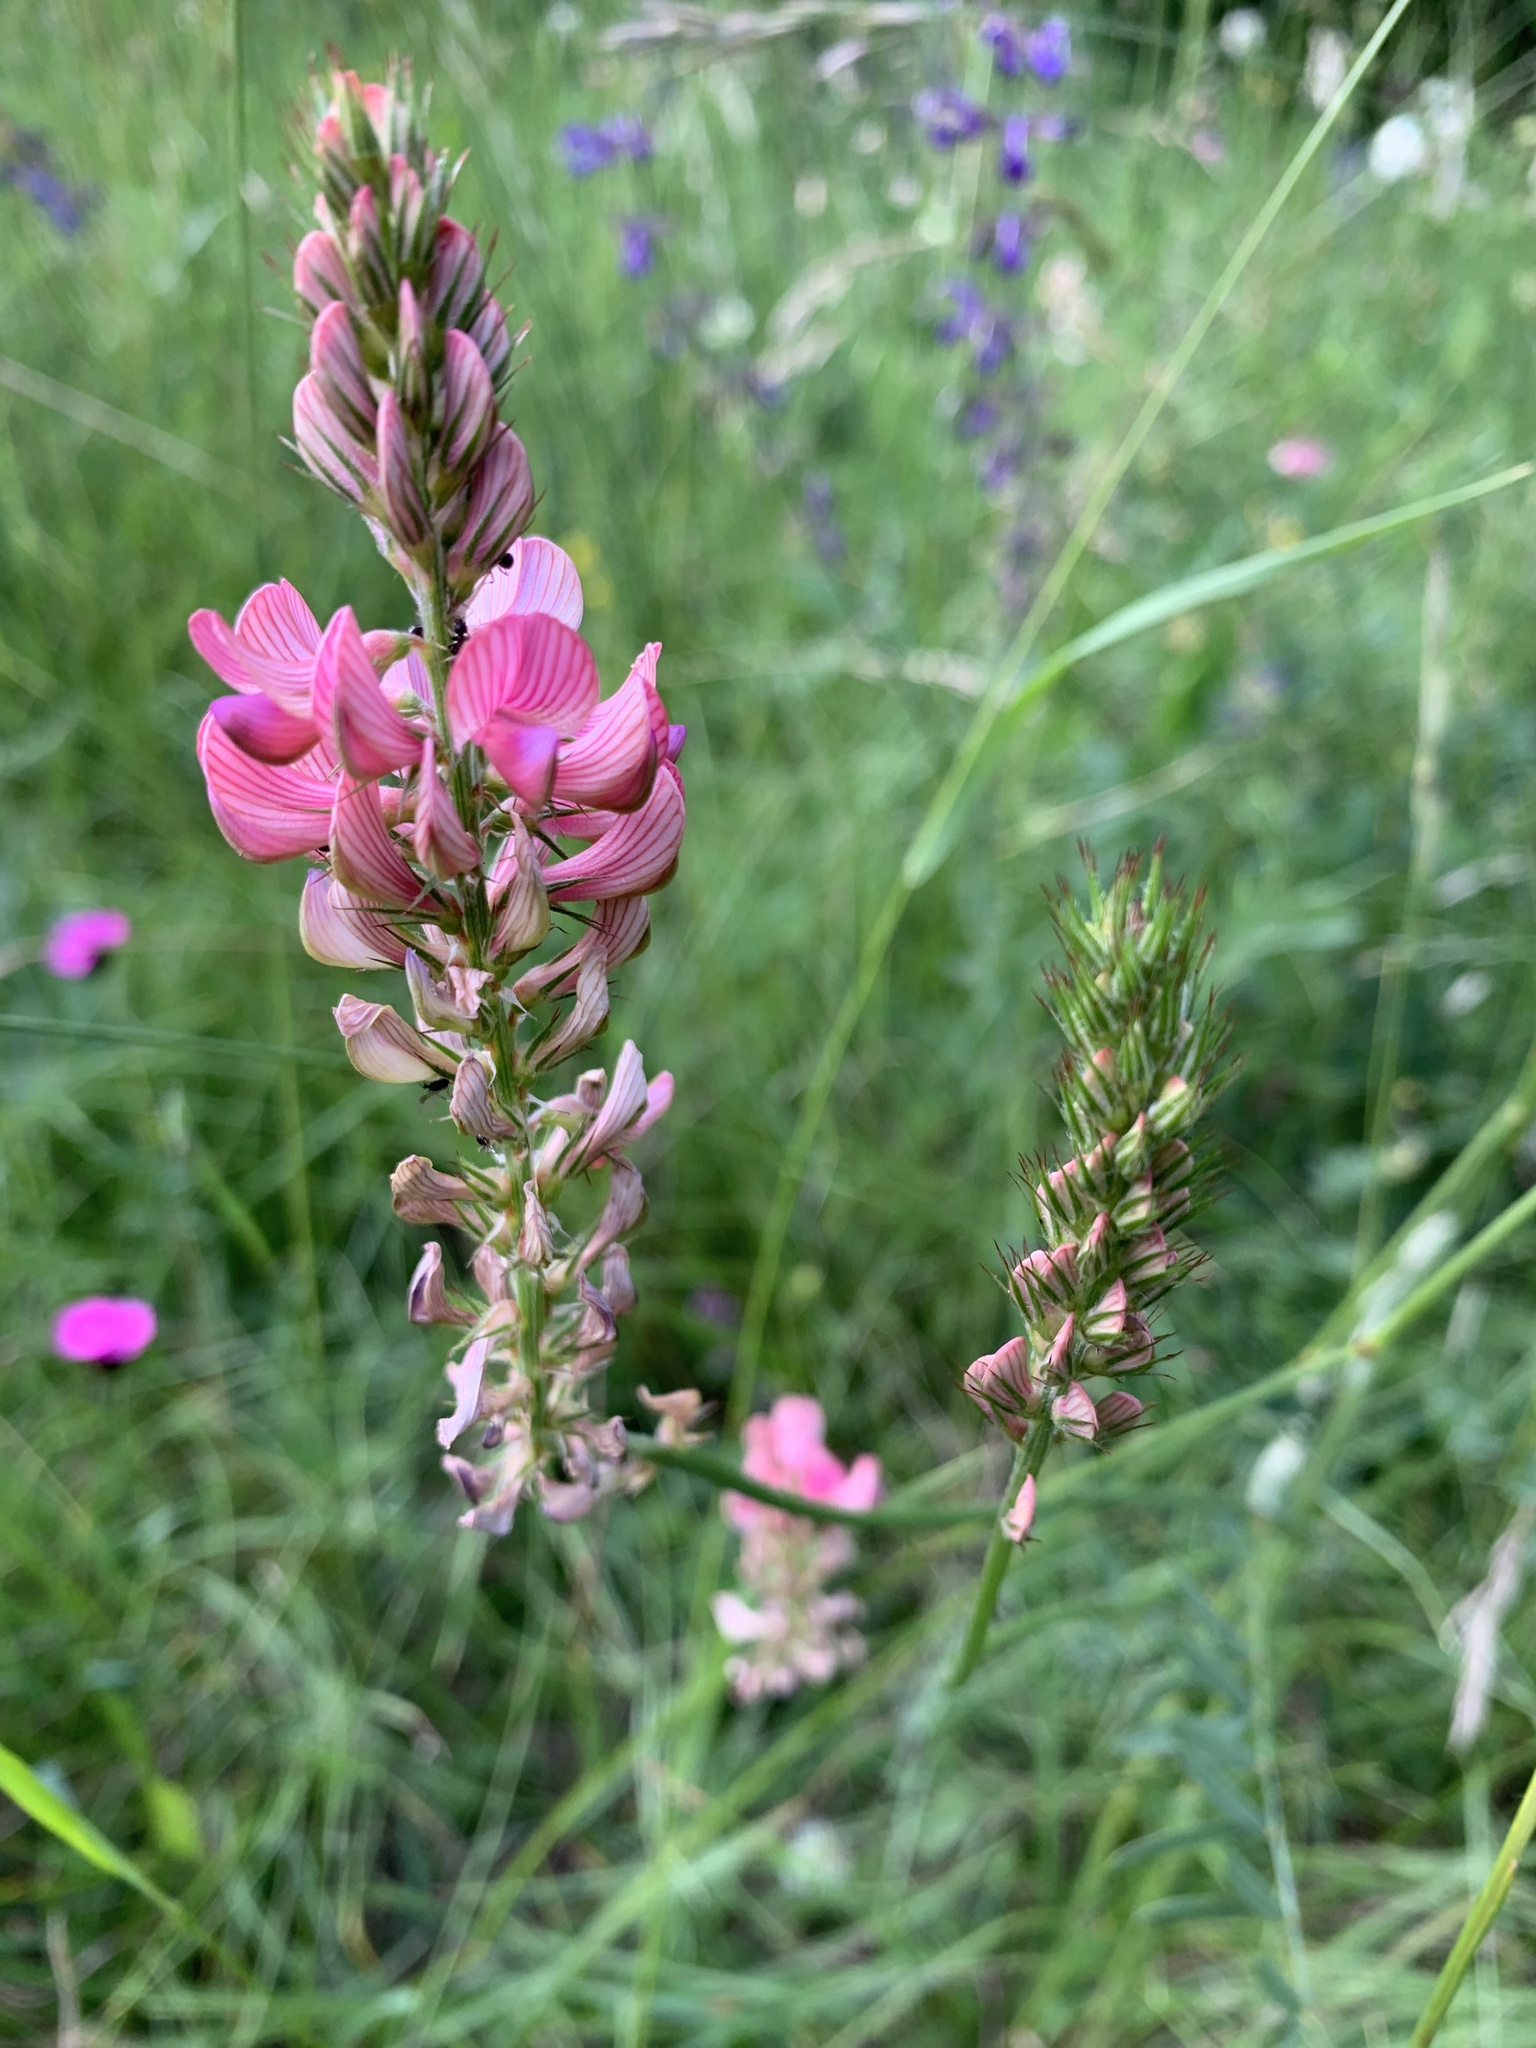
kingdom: Plantae
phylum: Tracheophyta
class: Magnoliopsida
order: Fabales
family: Fabaceae
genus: Onobrychis
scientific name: Onobrychis viciifolia
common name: Sainfoin
